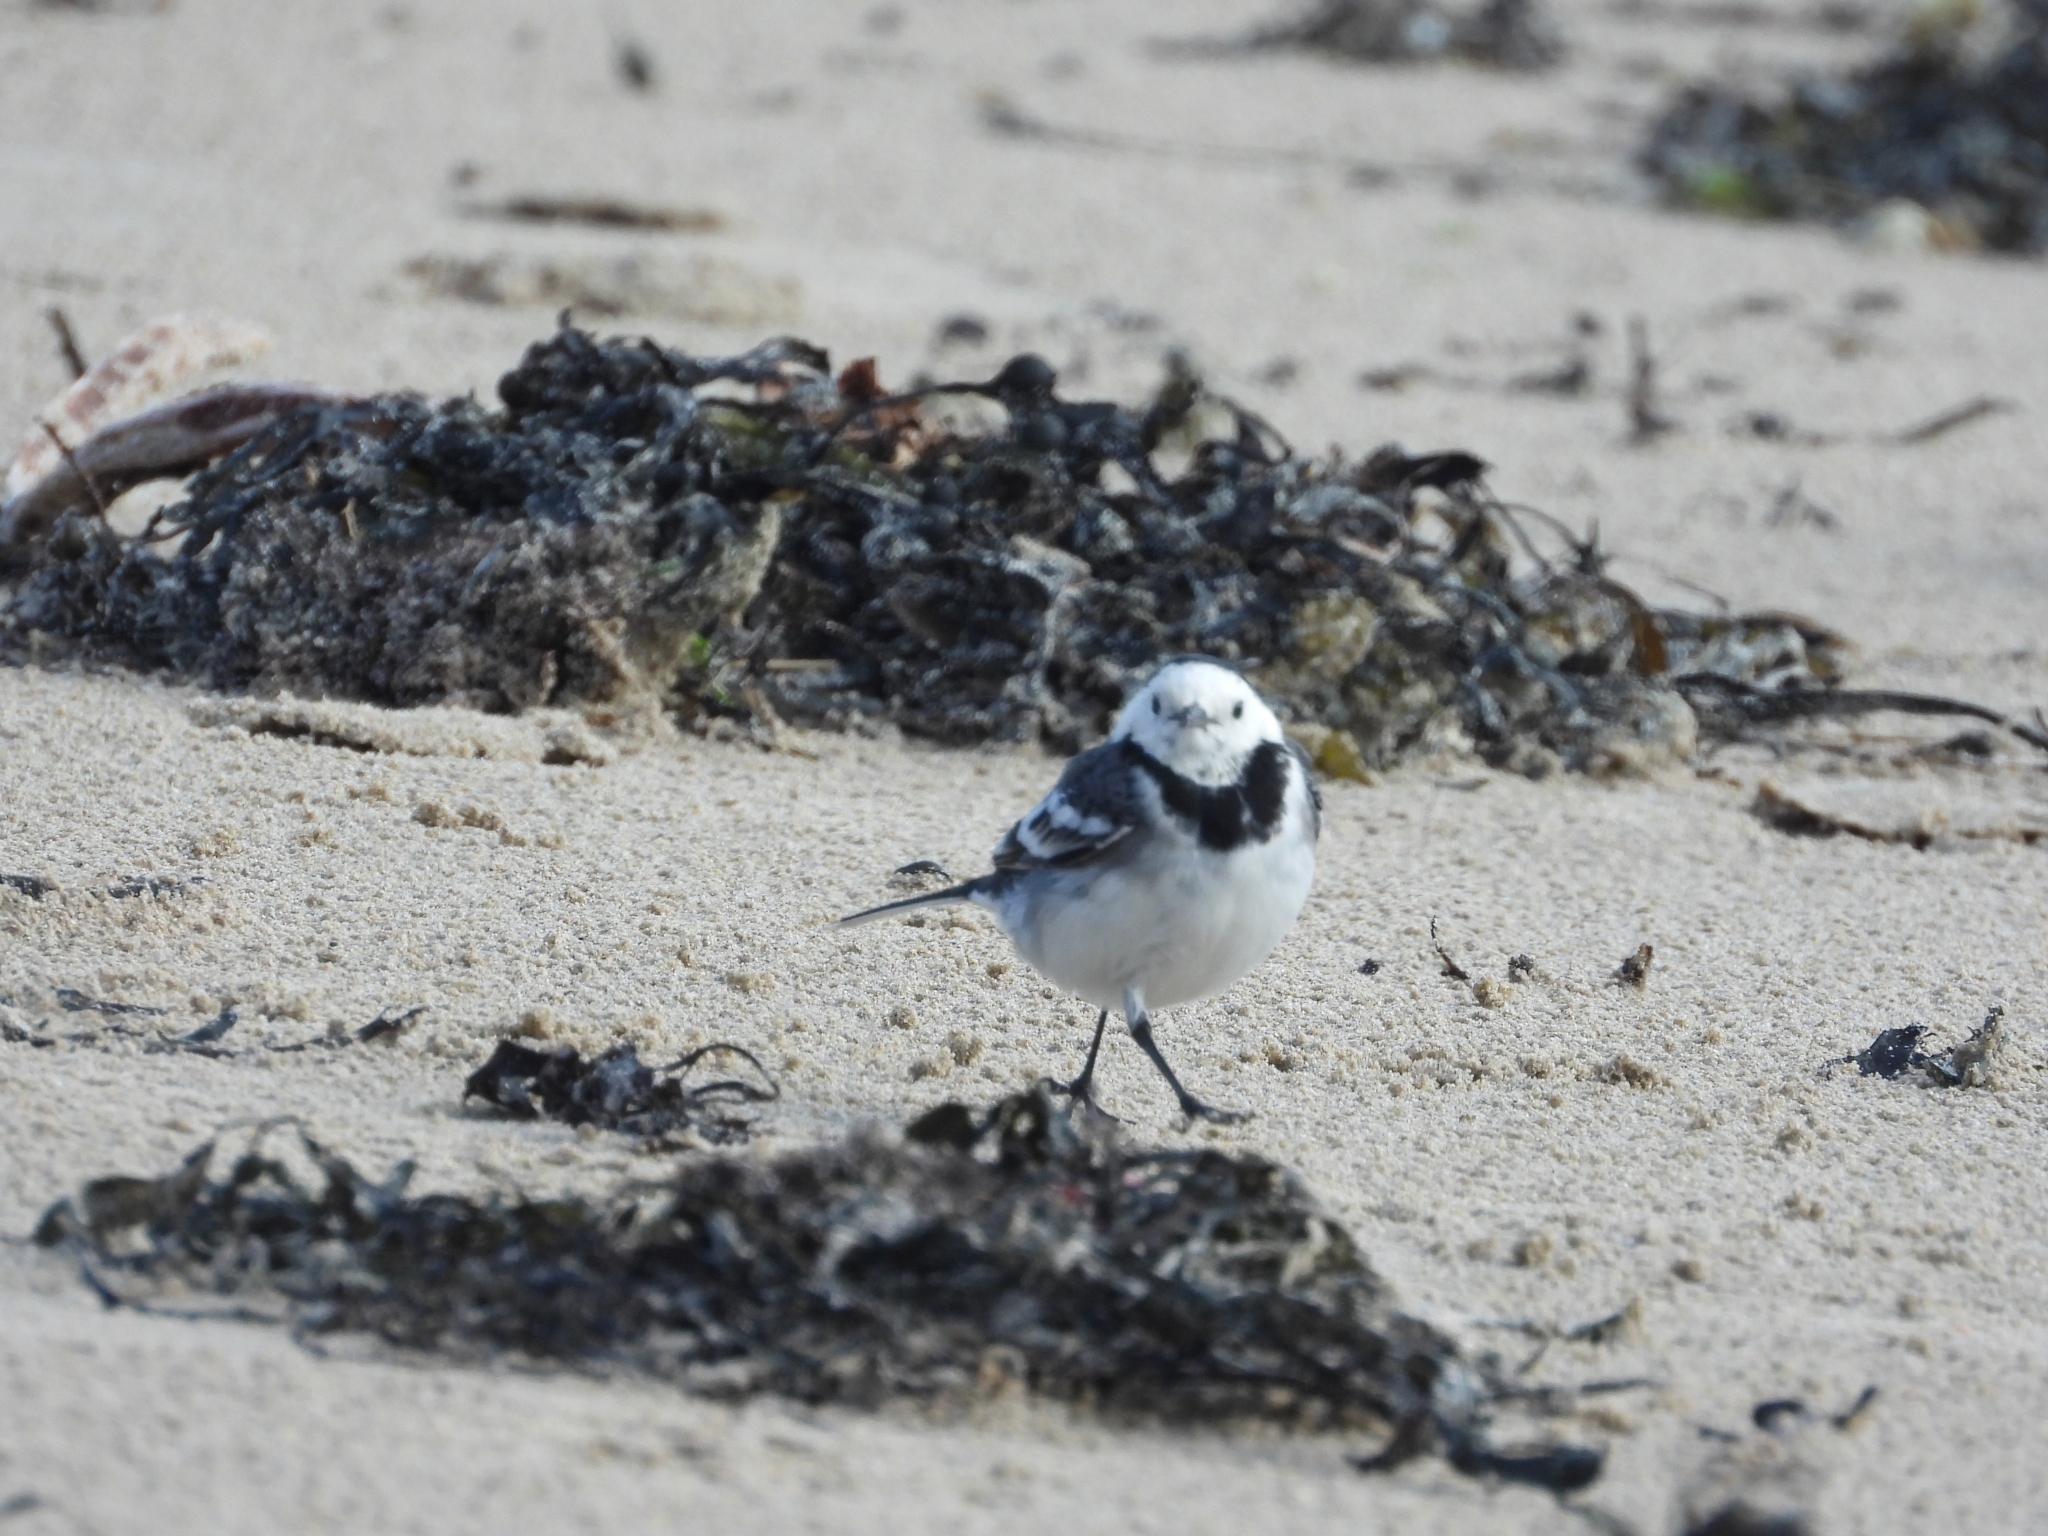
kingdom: Animalia
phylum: Chordata
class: Aves
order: Passeriformes
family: Motacillidae
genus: Motacilla
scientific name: Motacilla alba
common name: White wagtail
